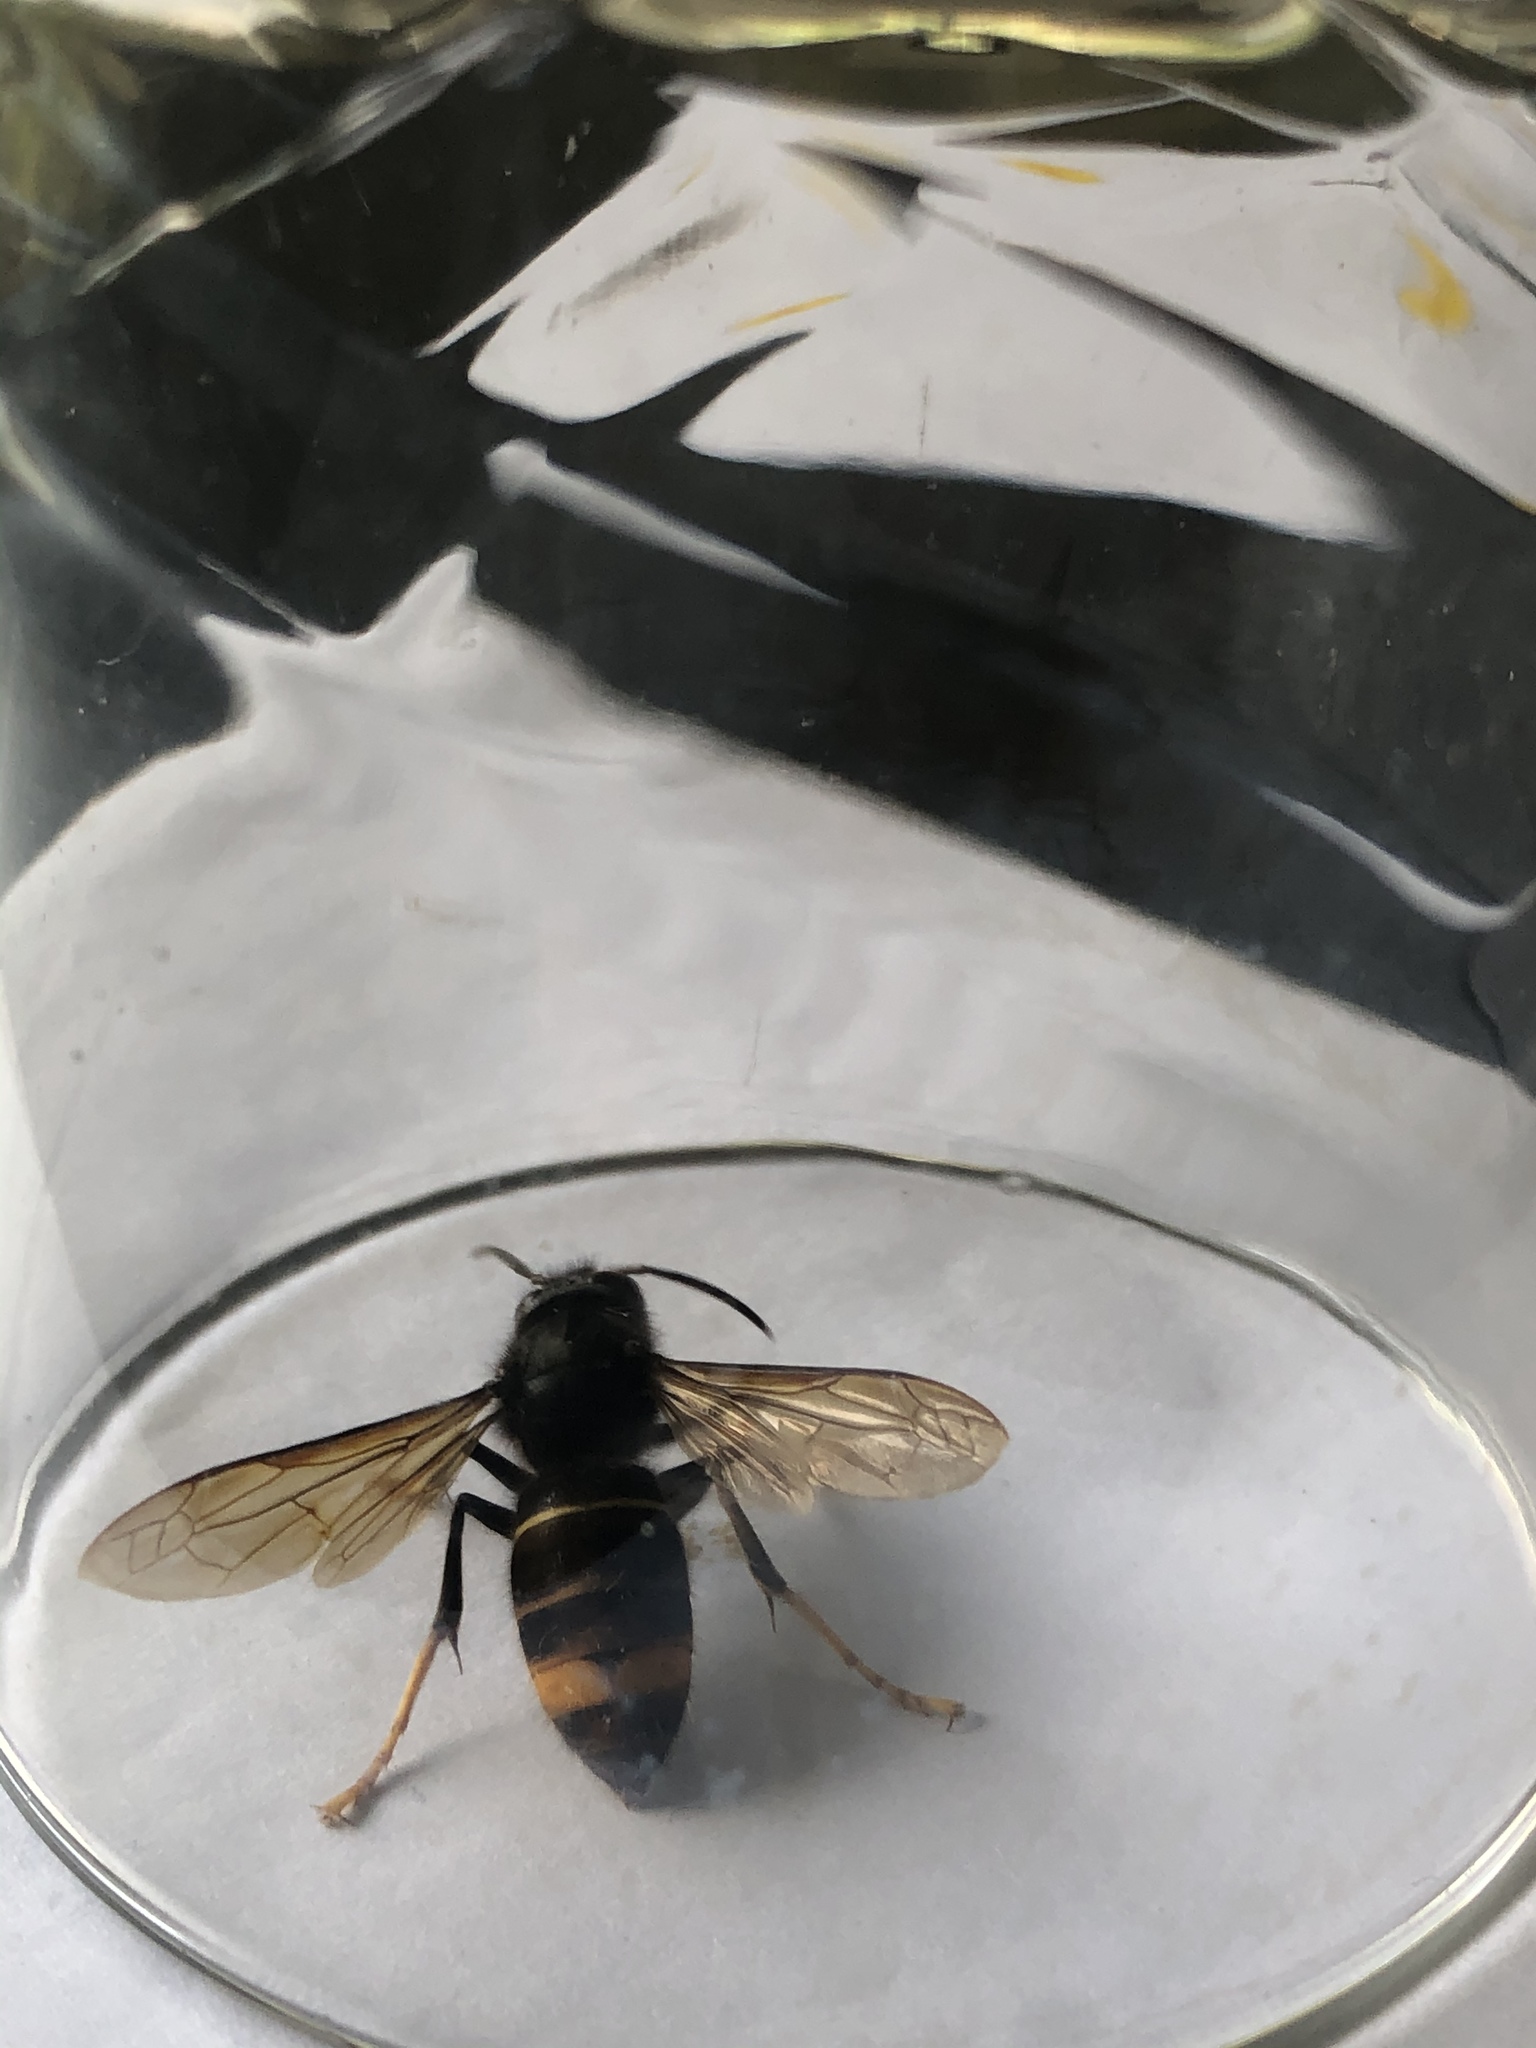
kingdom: Animalia
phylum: Arthropoda
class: Insecta
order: Hymenoptera
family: Vespidae
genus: Vespa
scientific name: Vespa velutina
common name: Asian hornet
